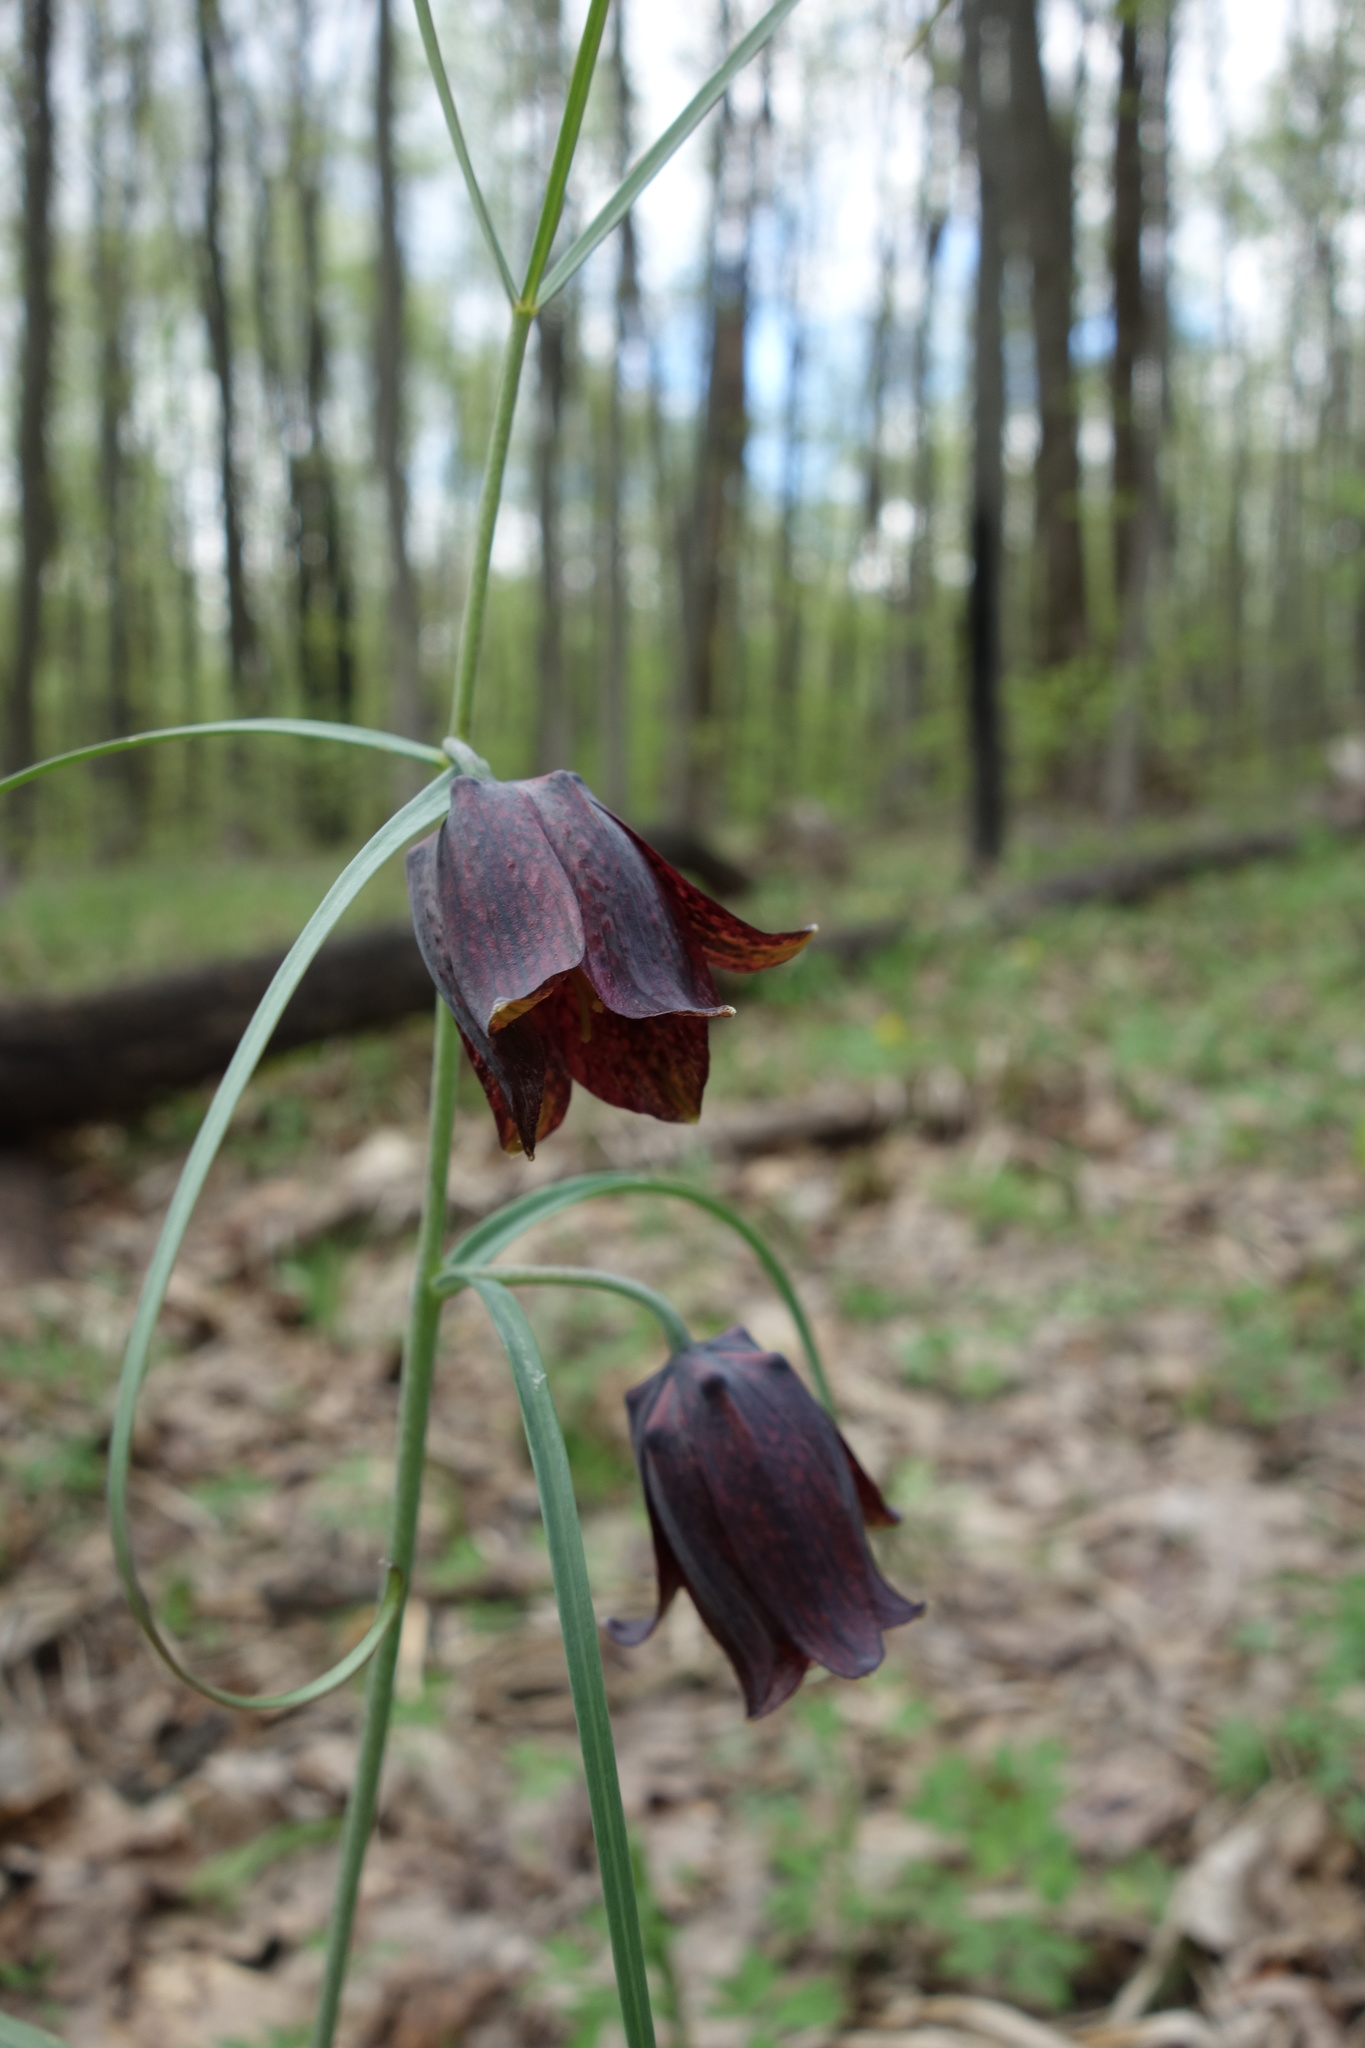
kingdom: Plantae
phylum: Tracheophyta
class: Liliopsida
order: Liliales
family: Liliaceae
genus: Fritillaria
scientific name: Fritillaria ruthenica
